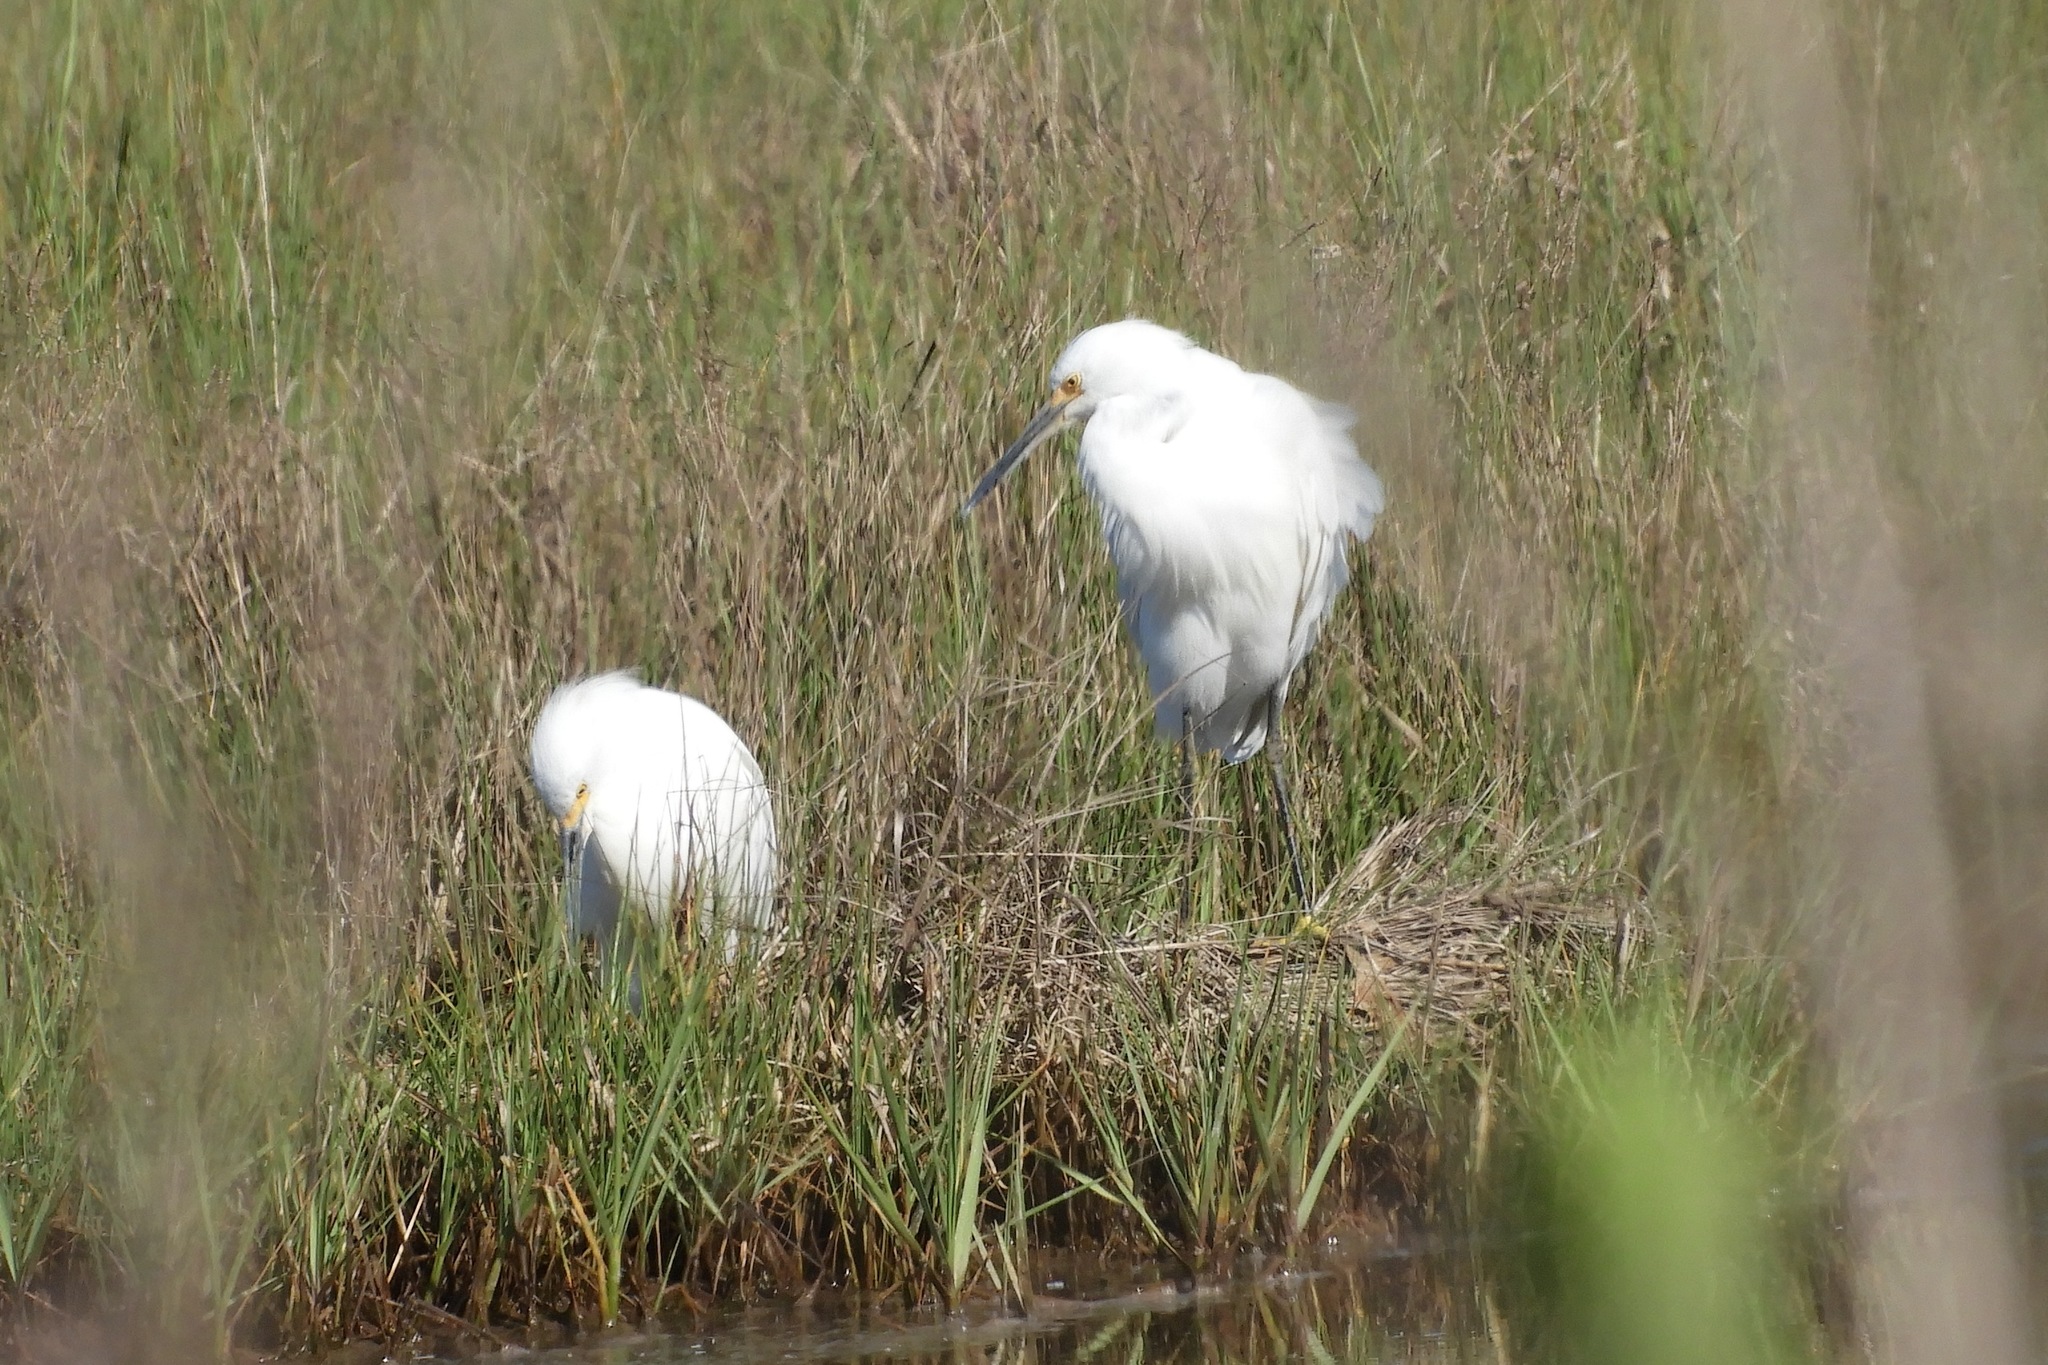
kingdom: Animalia
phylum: Chordata
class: Aves
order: Pelecaniformes
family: Ardeidae
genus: Egretta
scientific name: Egretta thula
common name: Snowy egret
